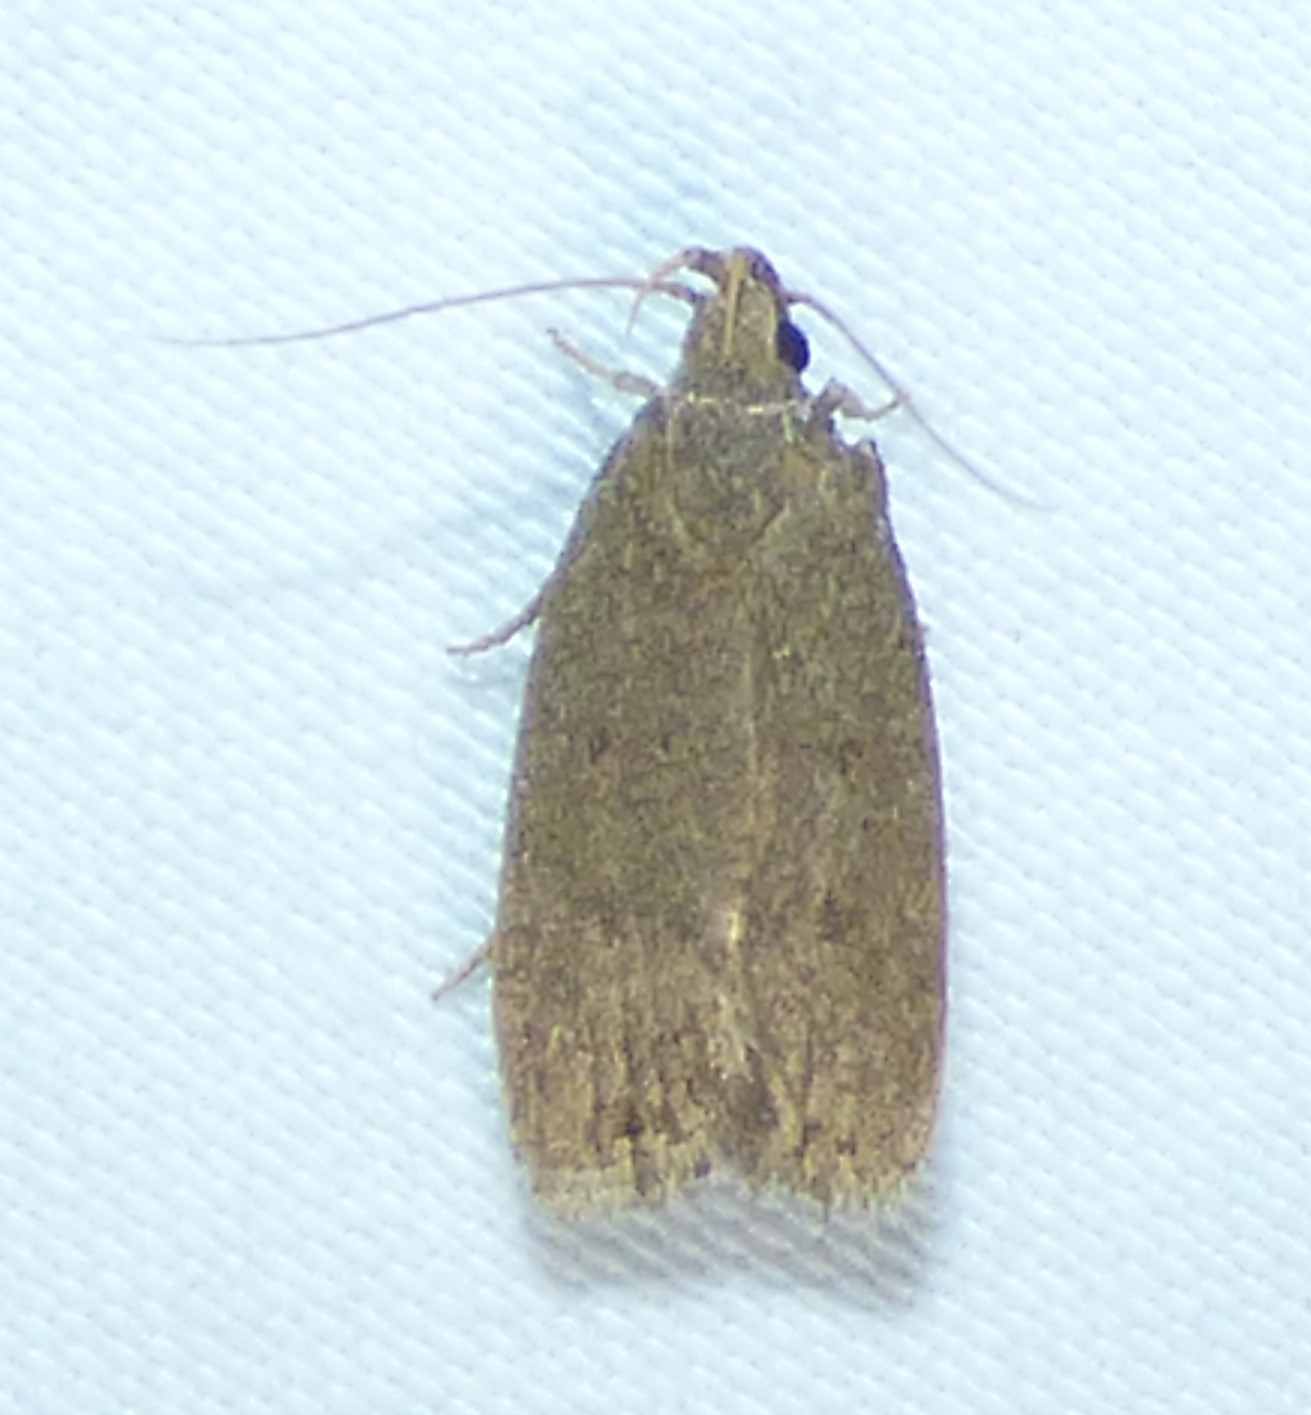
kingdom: Animalia
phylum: Arthropoda
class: Insecta
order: Lepidoptera
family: Autostichidae
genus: Autosticha
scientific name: Autosticha kyotensis
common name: Kyoto moth
